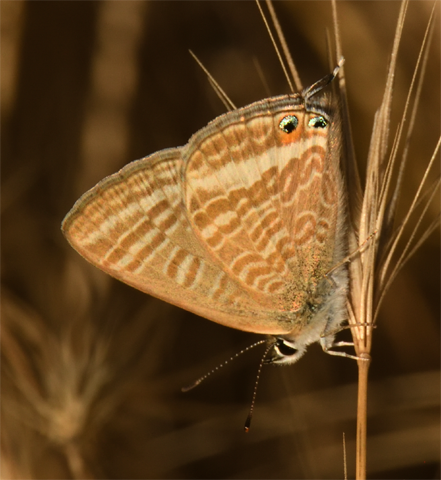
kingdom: Animalia
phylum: Arthropoda
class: Insecta
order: Lepidoptera
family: Lycaenidae
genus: Lampides
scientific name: Lampides boeticus
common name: Long-tailed blue
